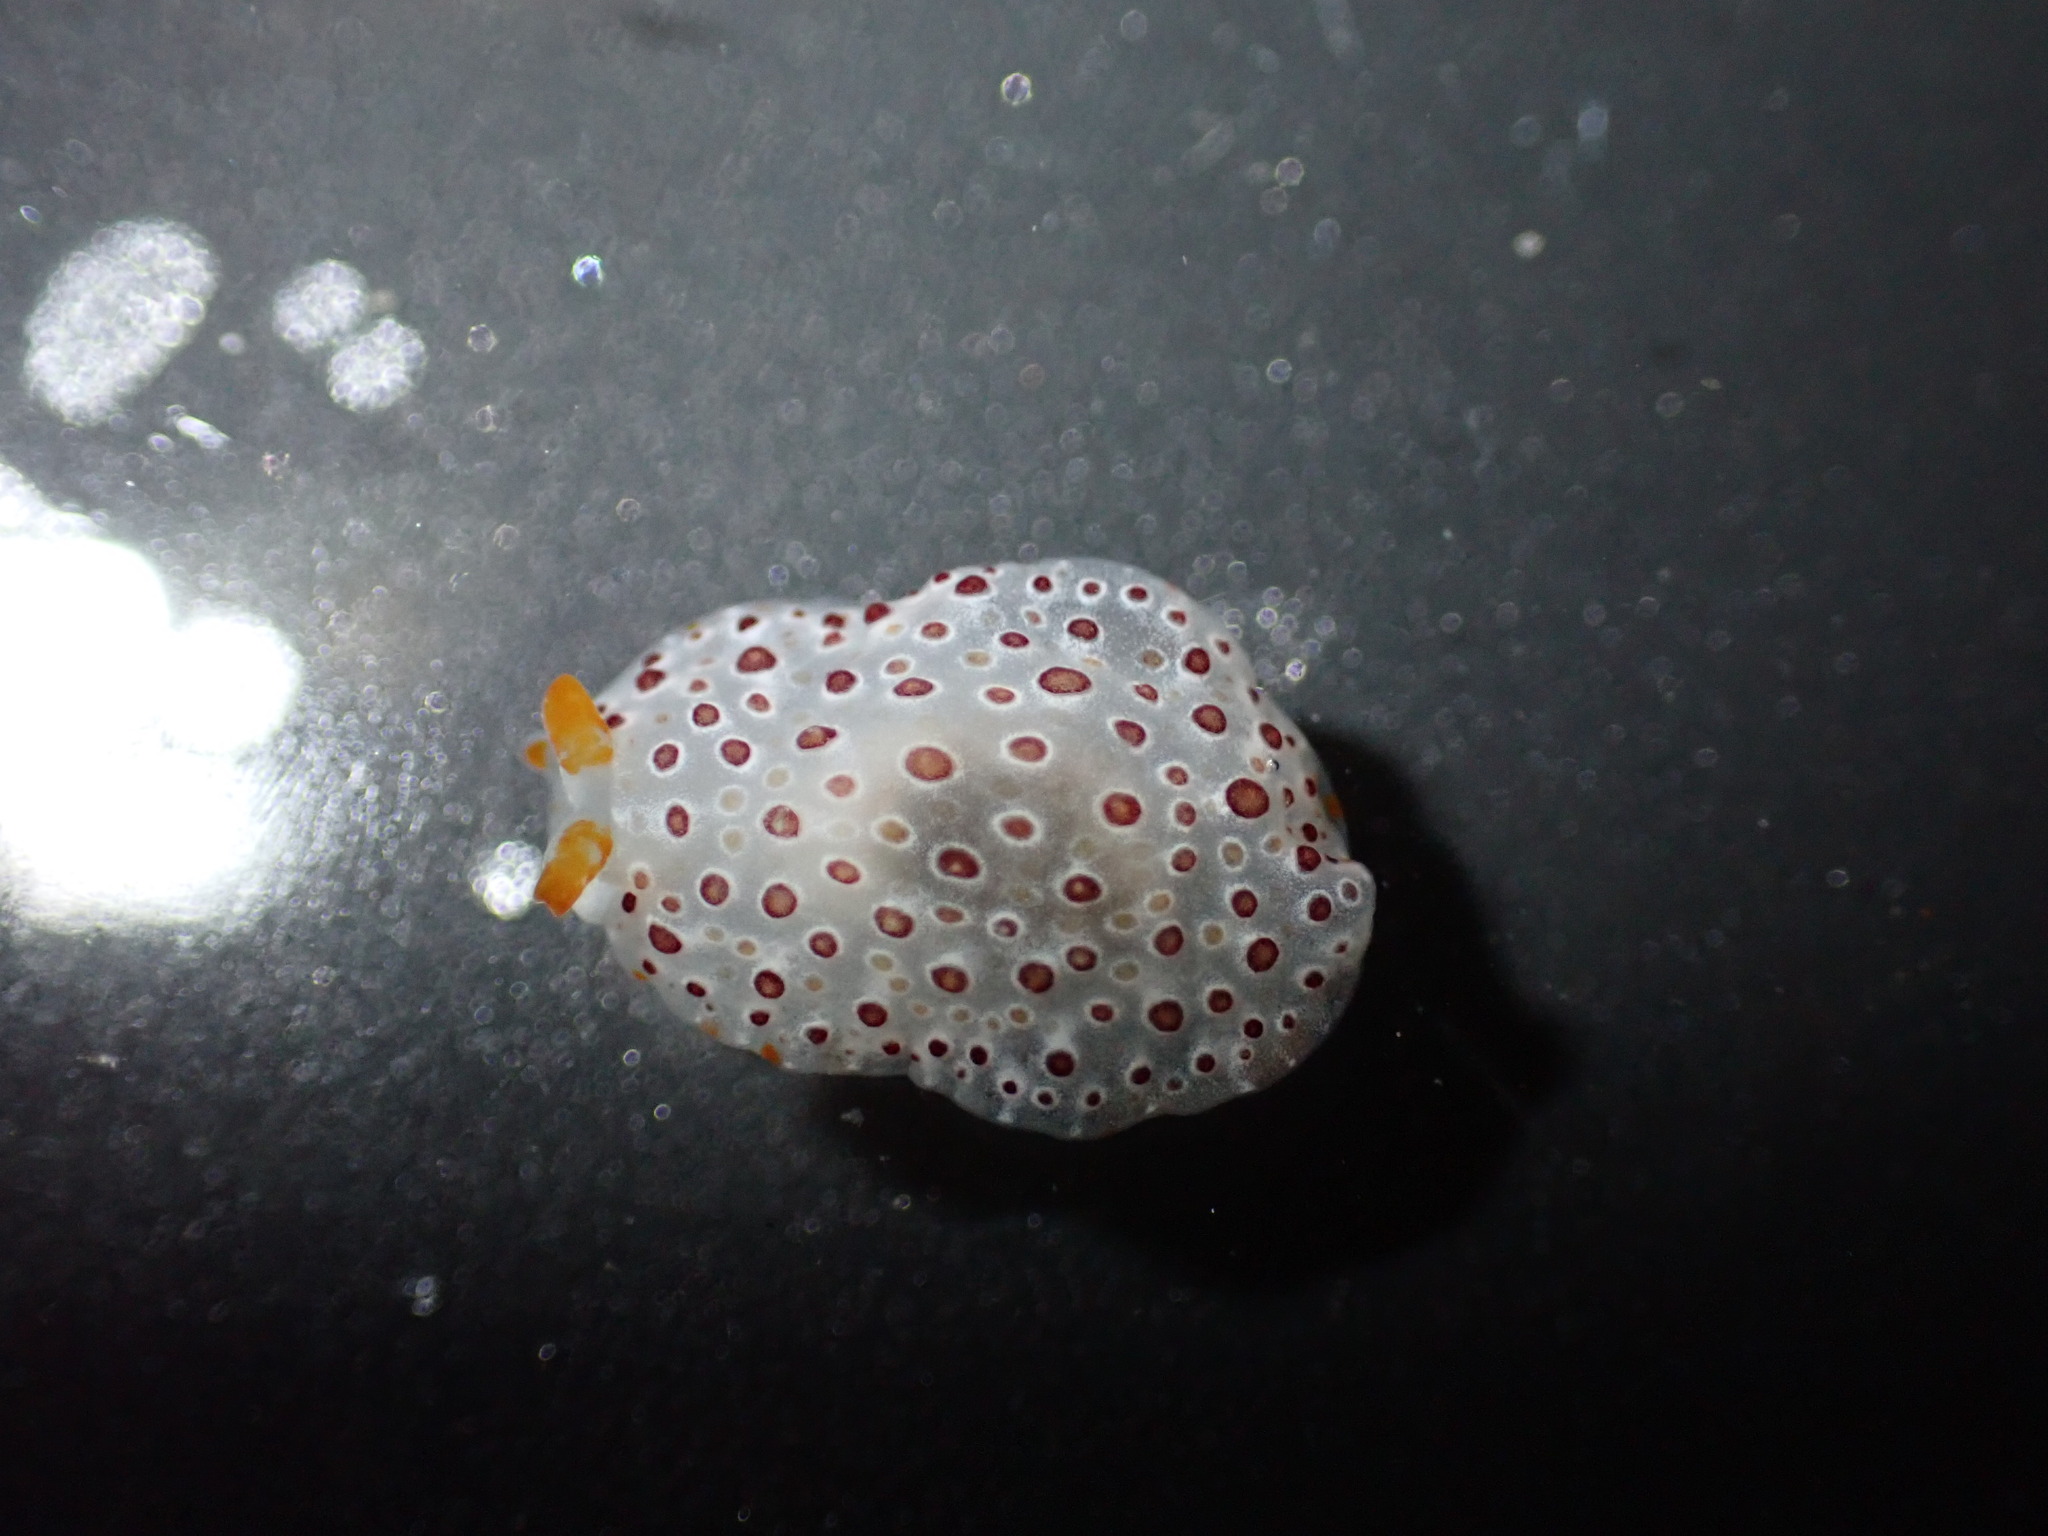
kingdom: Animalia
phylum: Mollusca
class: Gastropoda
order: Pleurobranchida
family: Pleurobranchidae
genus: Pleurobranchus
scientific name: Pleurobranchus peronii
